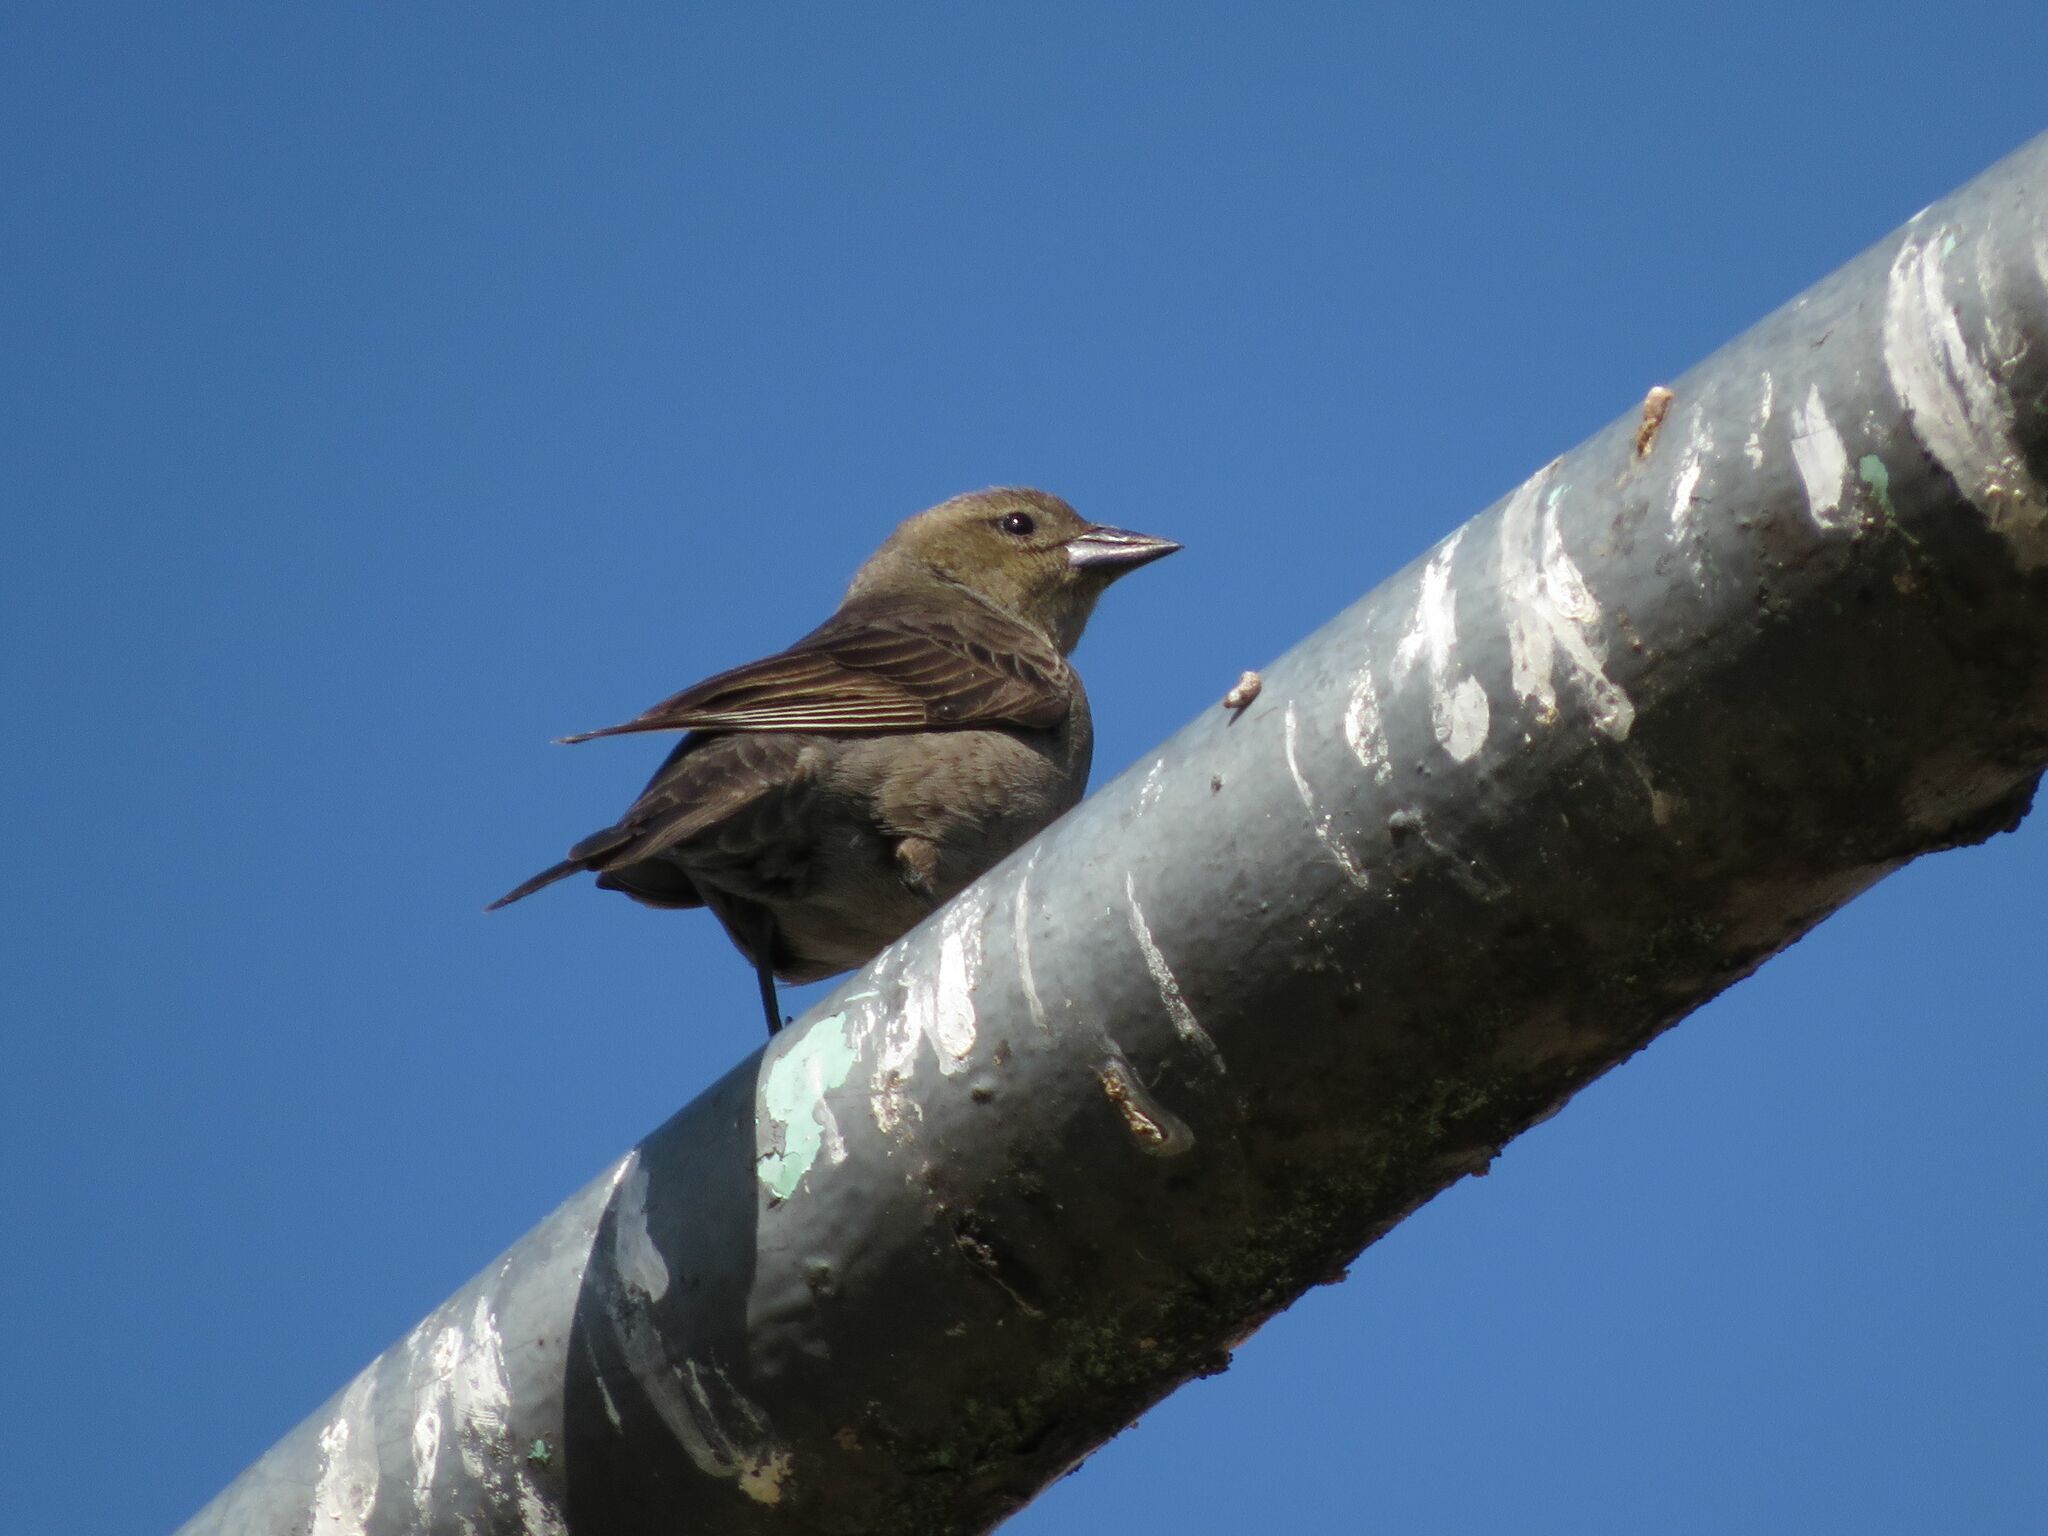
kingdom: Animalia
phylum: Chordata
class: Aves
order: Passeriformes
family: Icteridae
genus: Molothrus
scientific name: Molothrus bonariensis
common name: Shiny cowbird
